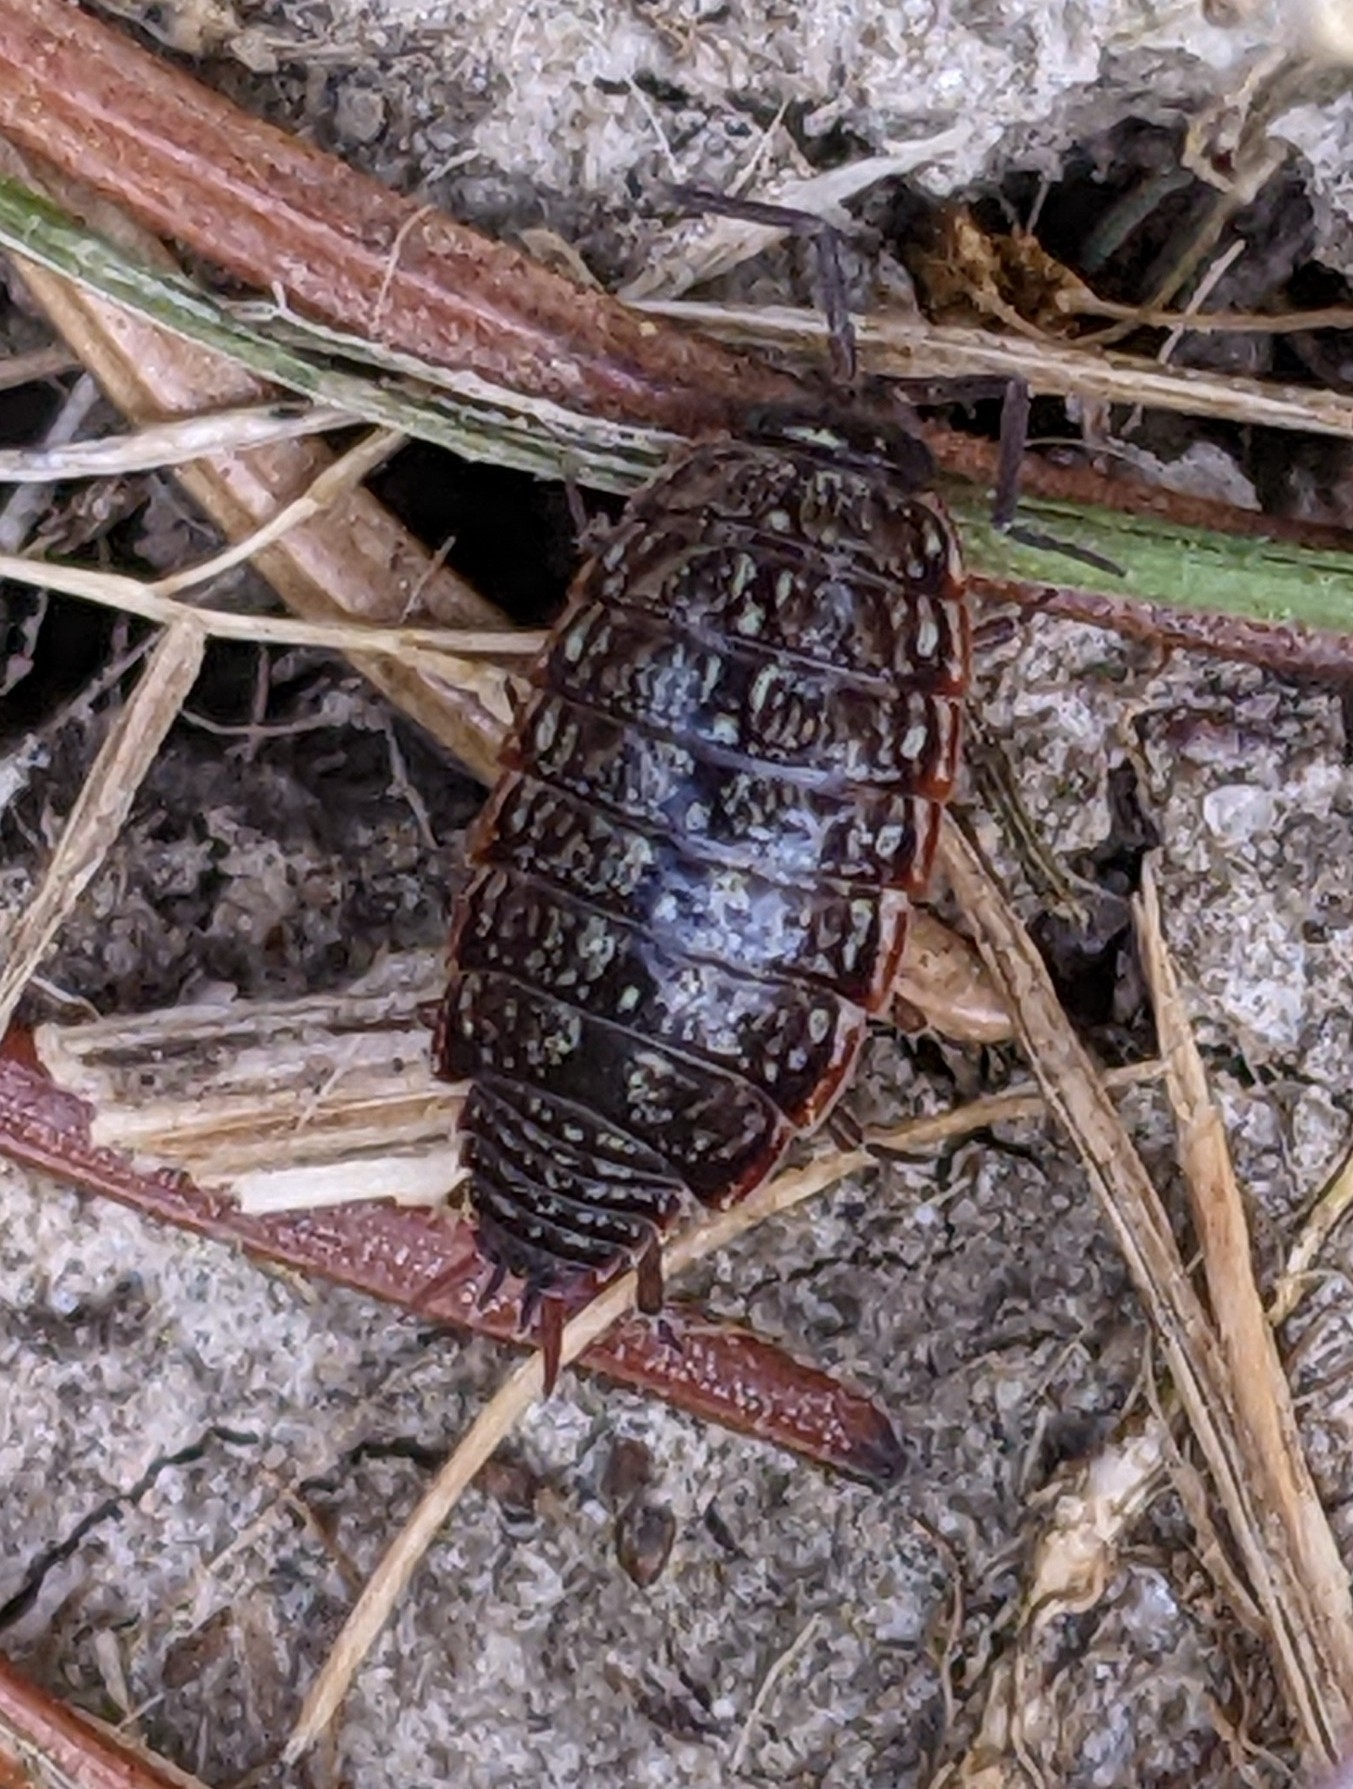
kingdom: Animalia
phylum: Arthropoda
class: Malacostraca
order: Isopoda
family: Philosciidae
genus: Philoscia
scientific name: Philoscia muscorum
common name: Common striped woodlouse
